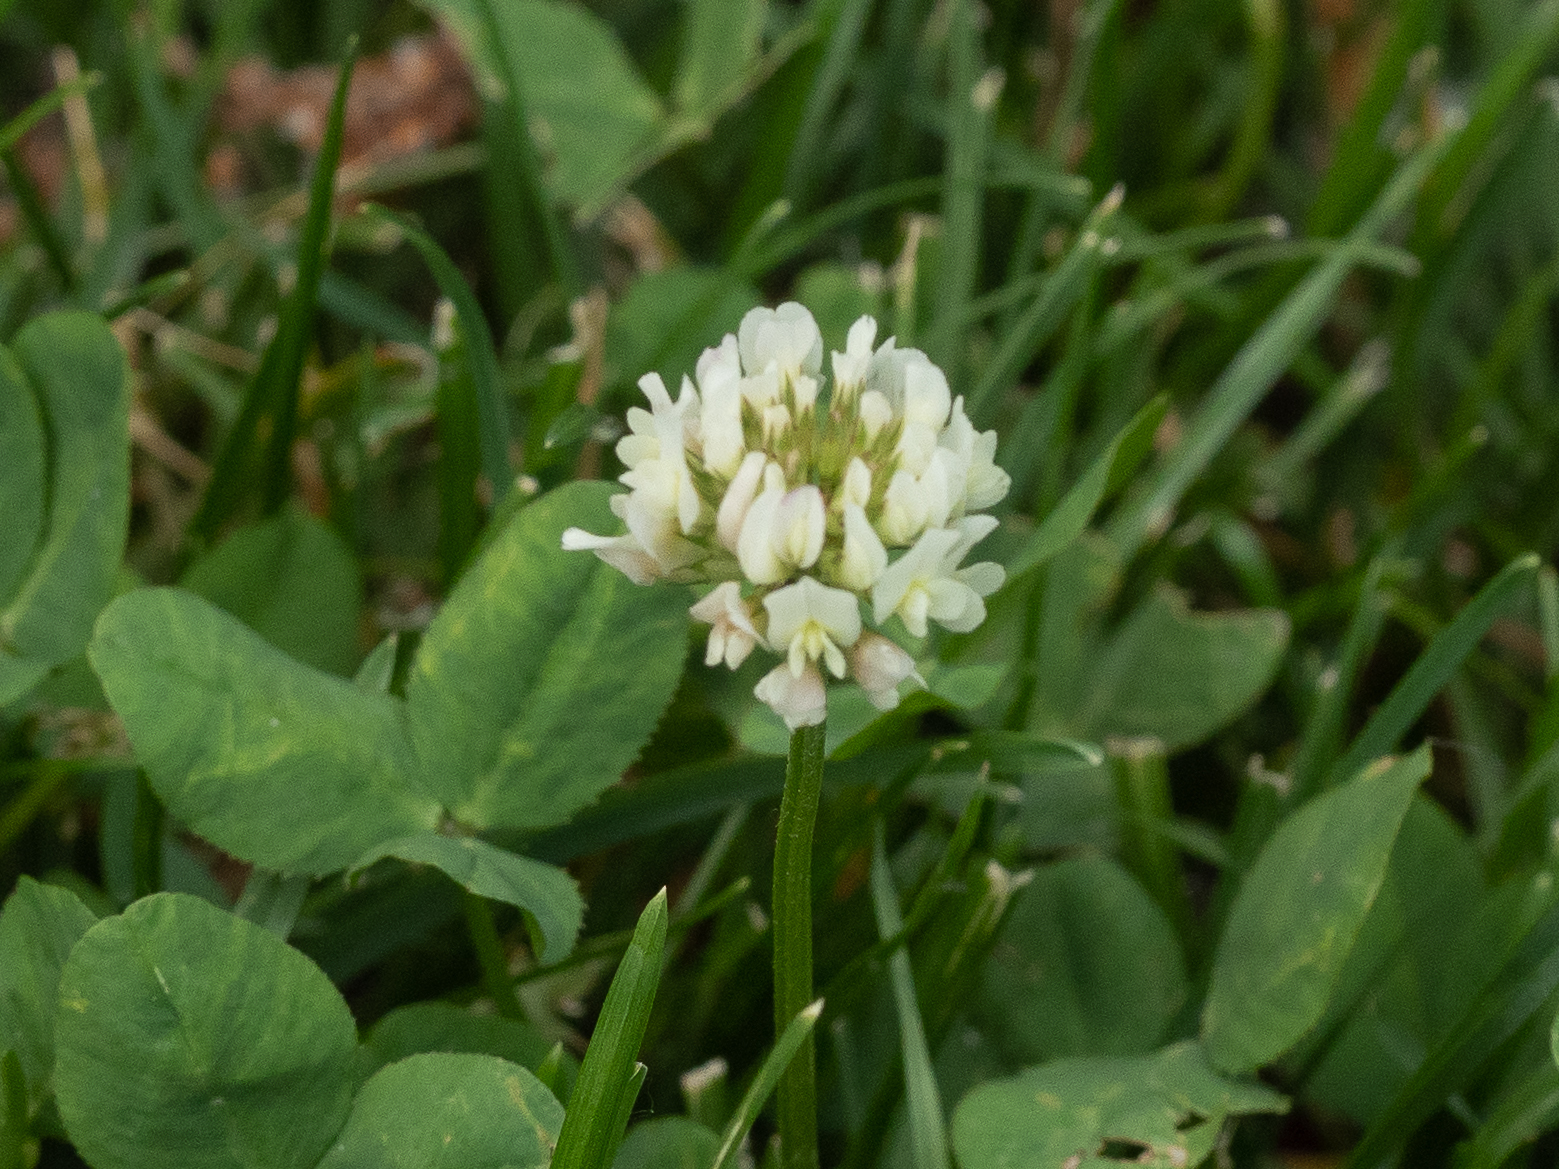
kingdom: Plantae
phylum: Tracheophyta
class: Magnoliopsida
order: Fabales
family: Fabaceae
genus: Trifolium
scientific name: Trifolium repens
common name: White clover
